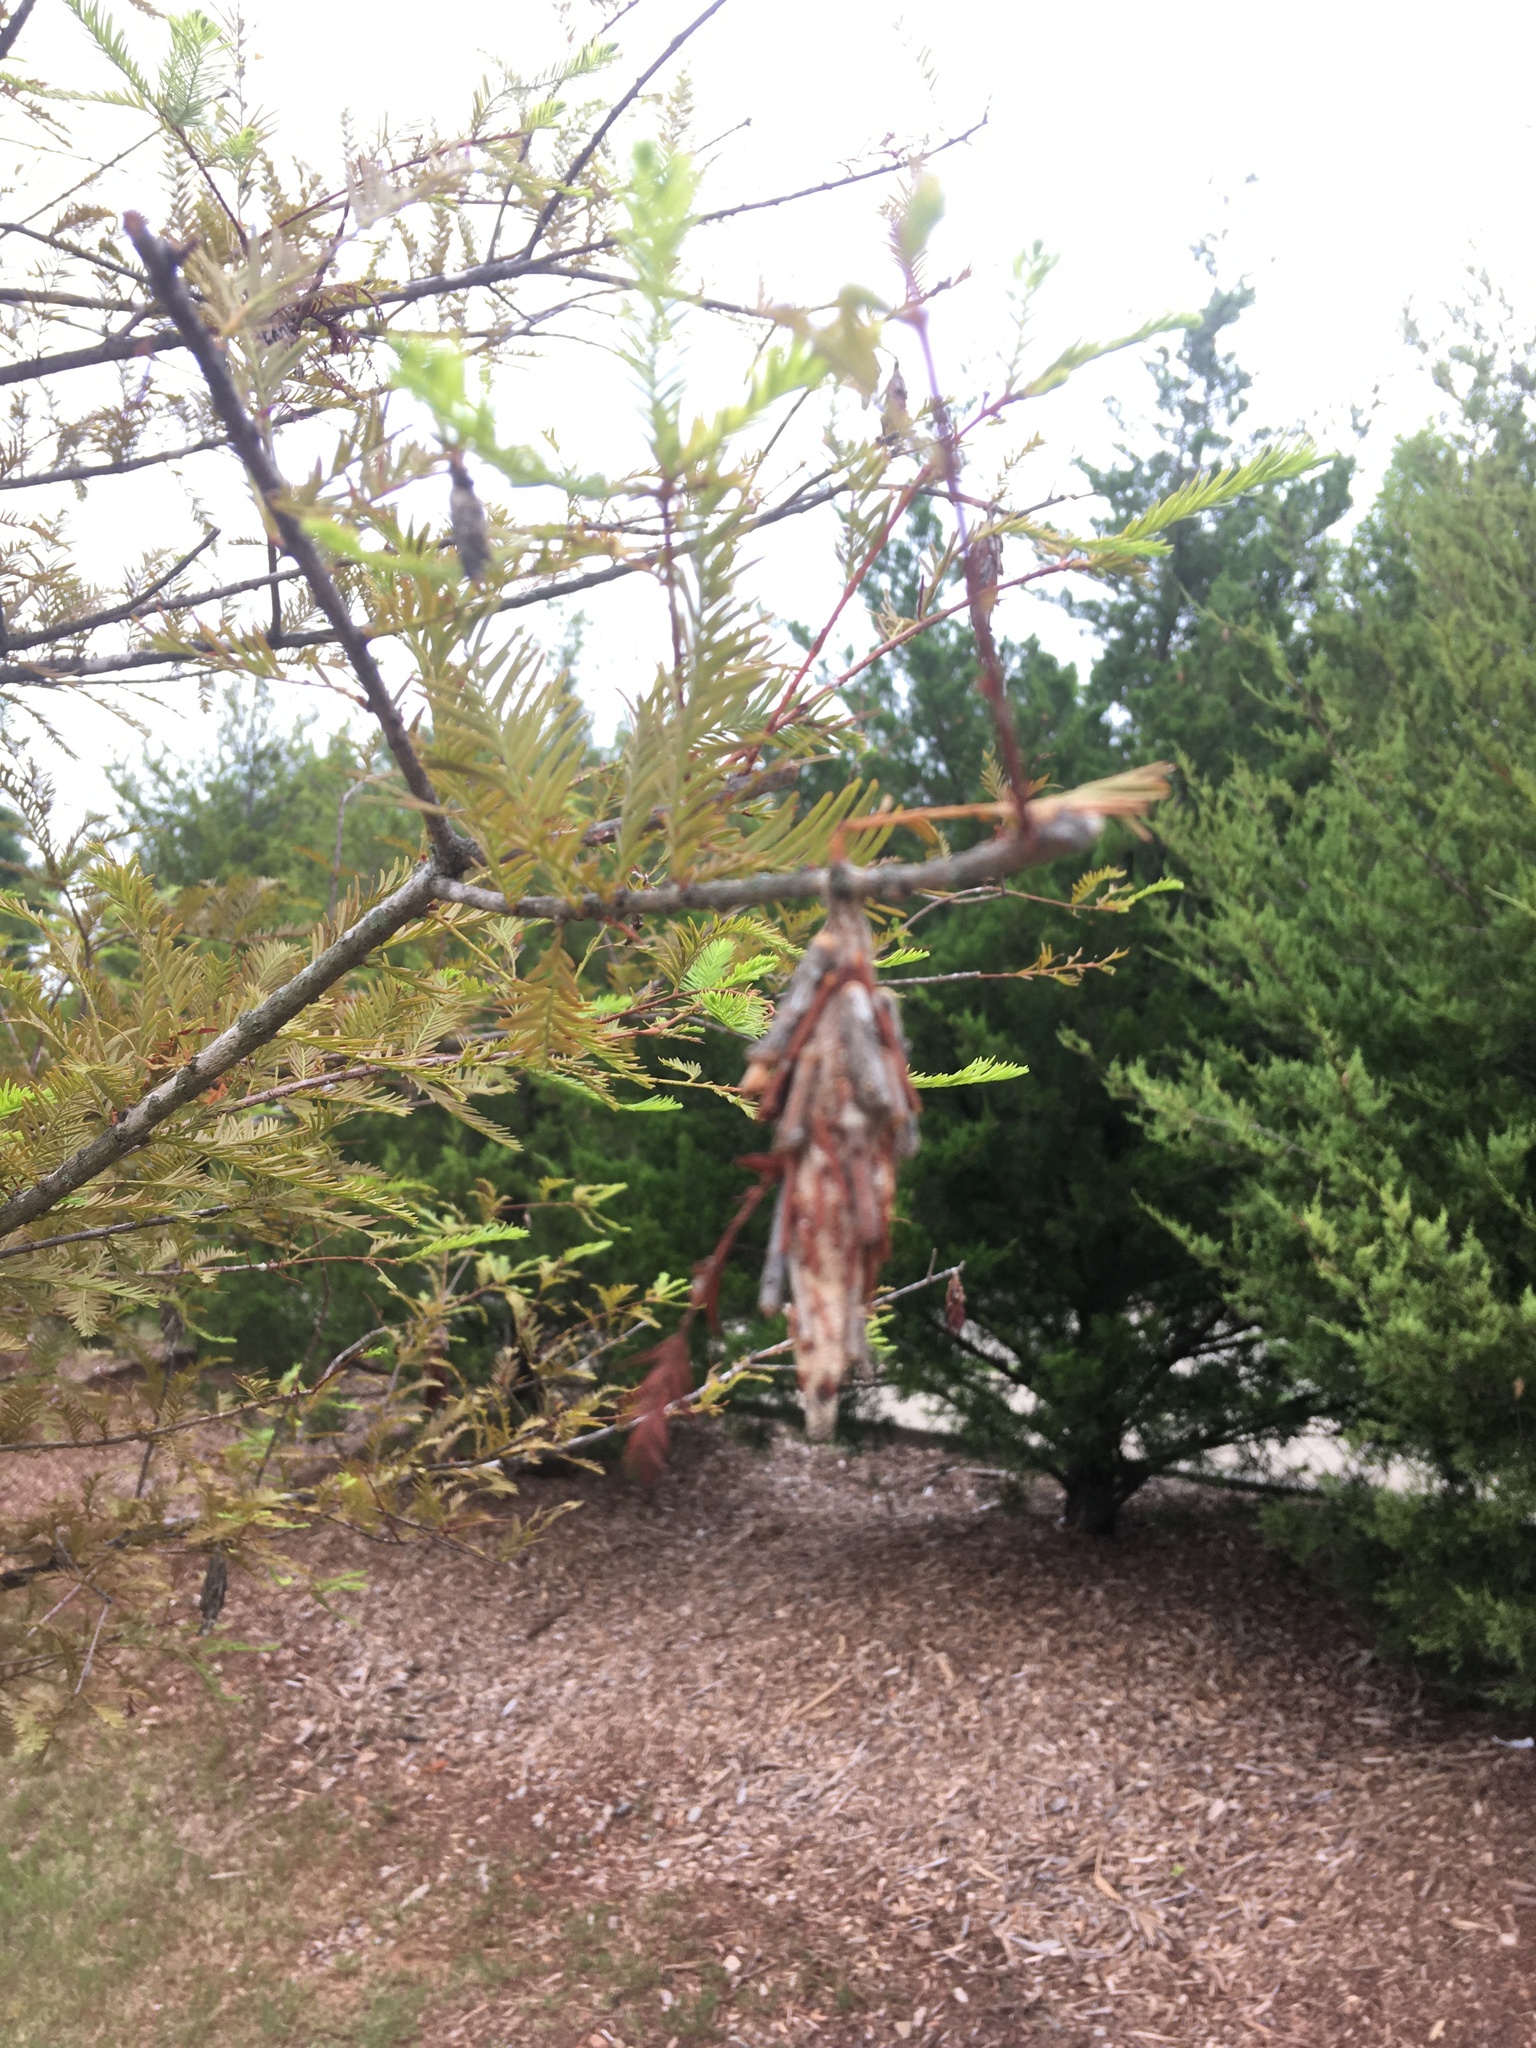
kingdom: Animalia
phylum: Arthropoda
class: Insecta
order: Lepidoptera
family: Psychidae
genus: Thyridopteryx
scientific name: Thyridopteryx ephemeraeformis
